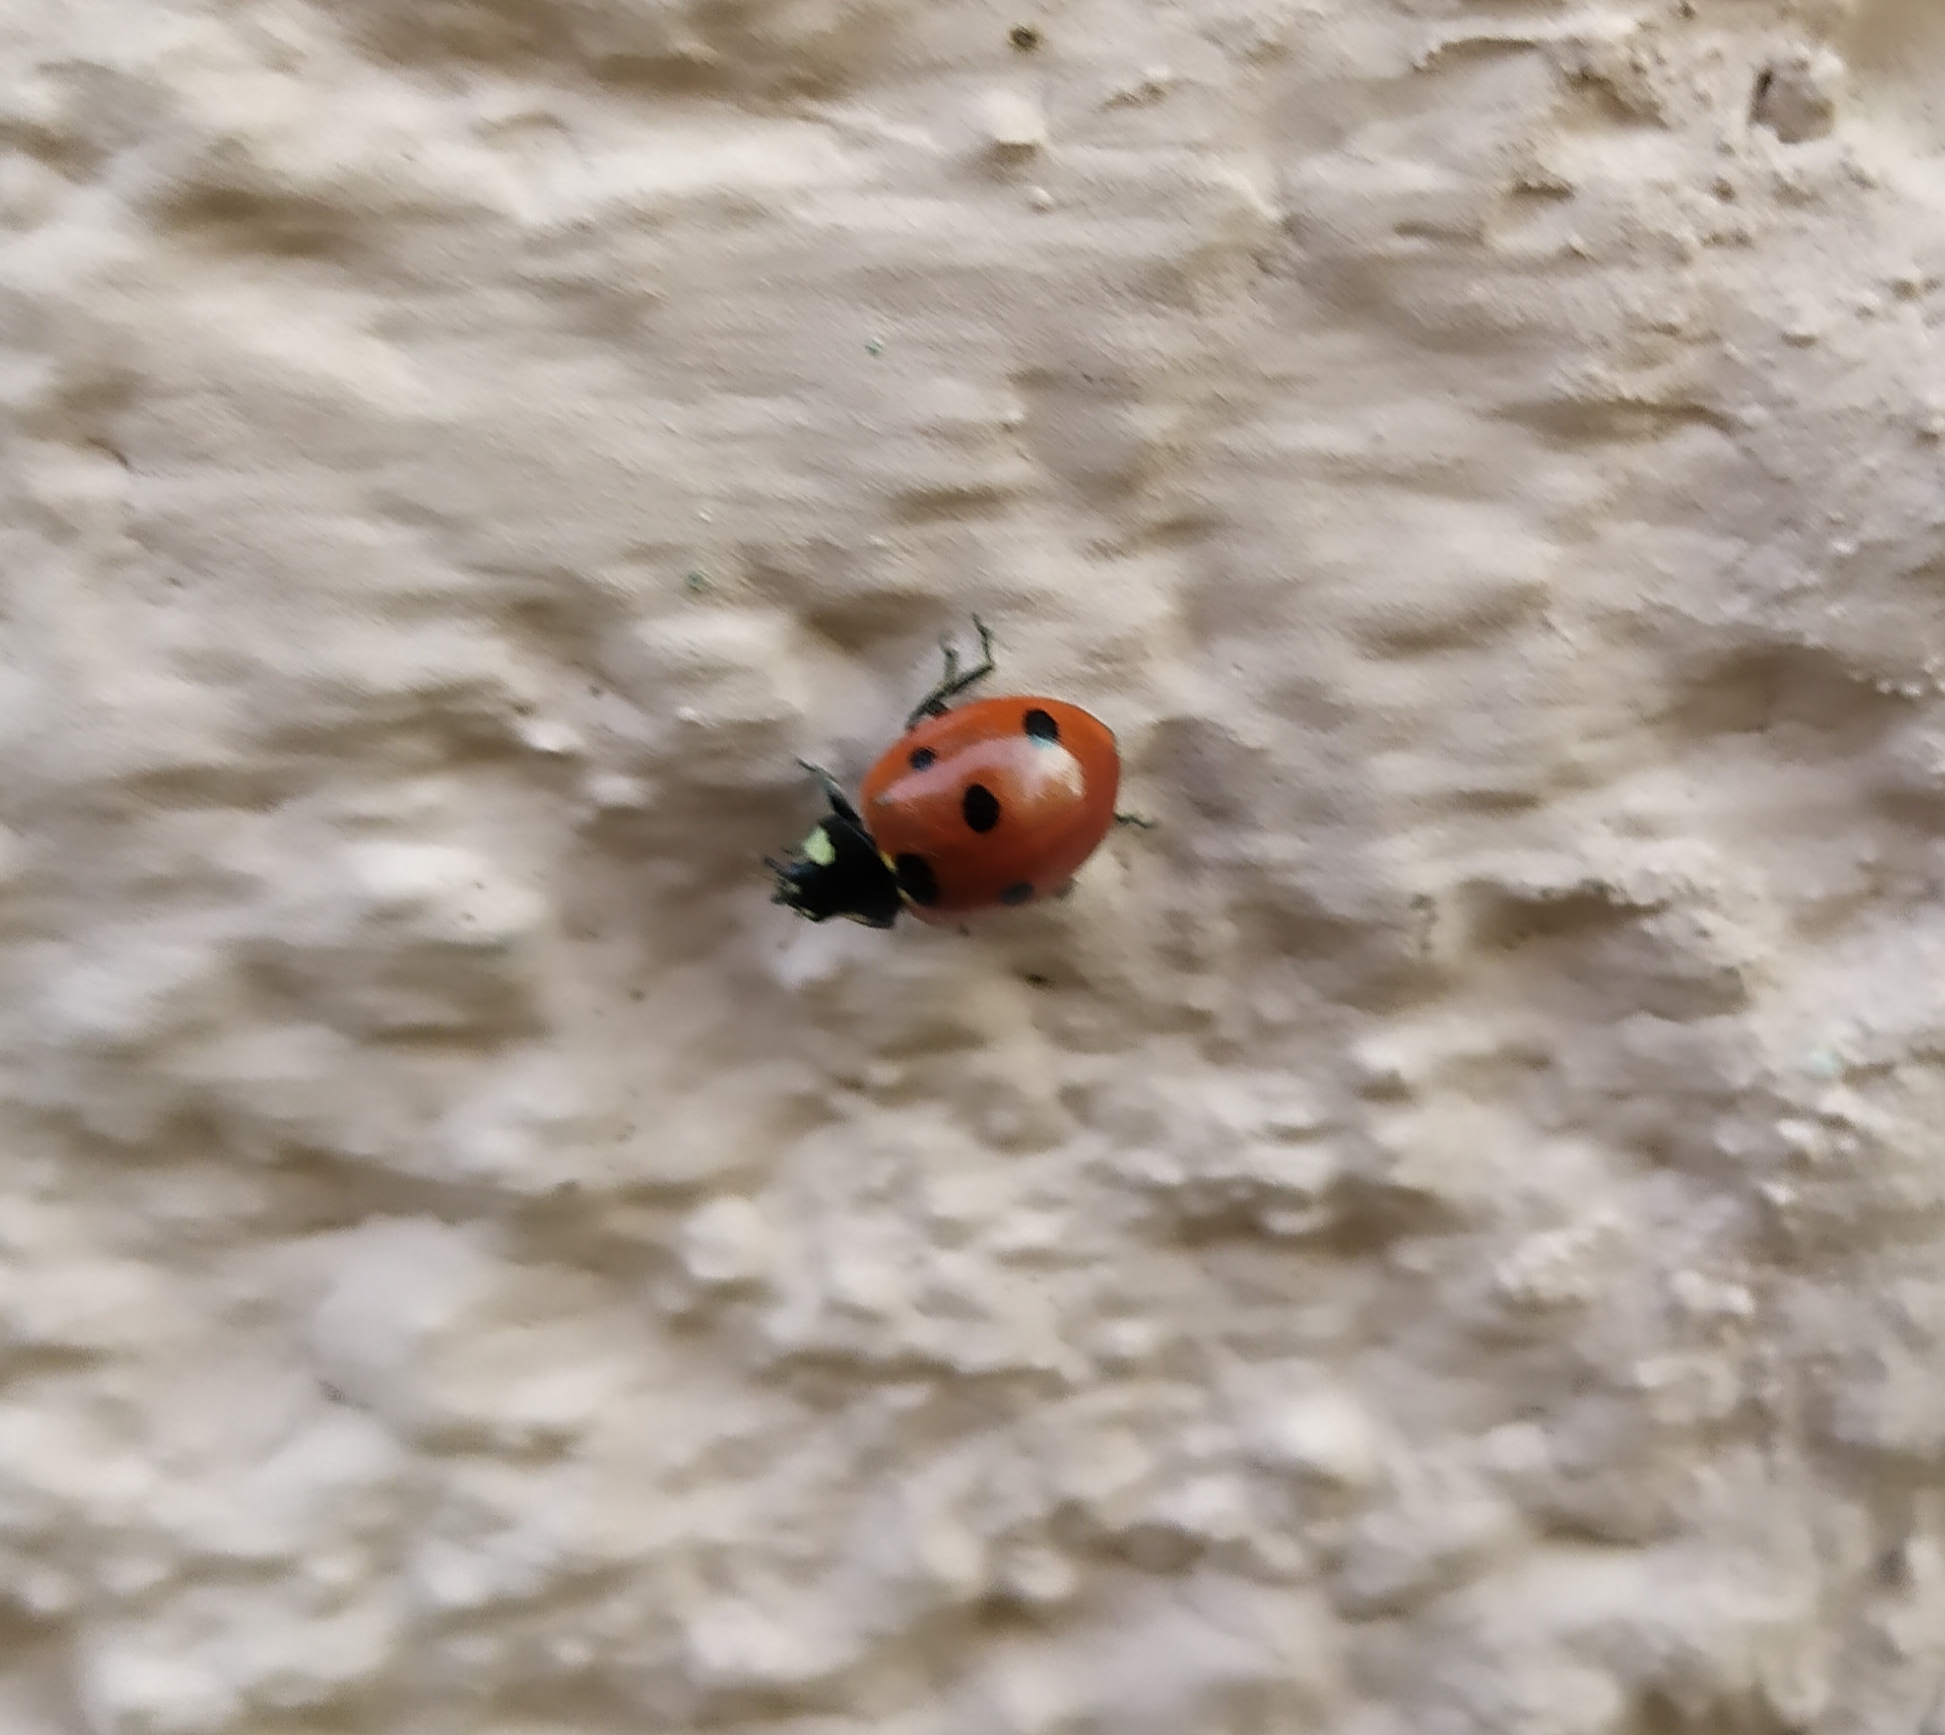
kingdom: Animalia
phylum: Arthropoda
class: Insecta
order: Coleoptera
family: Coccinellidae
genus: Coccinella
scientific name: Coccinella septempunctata
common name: Sevenspotted lady beetle
